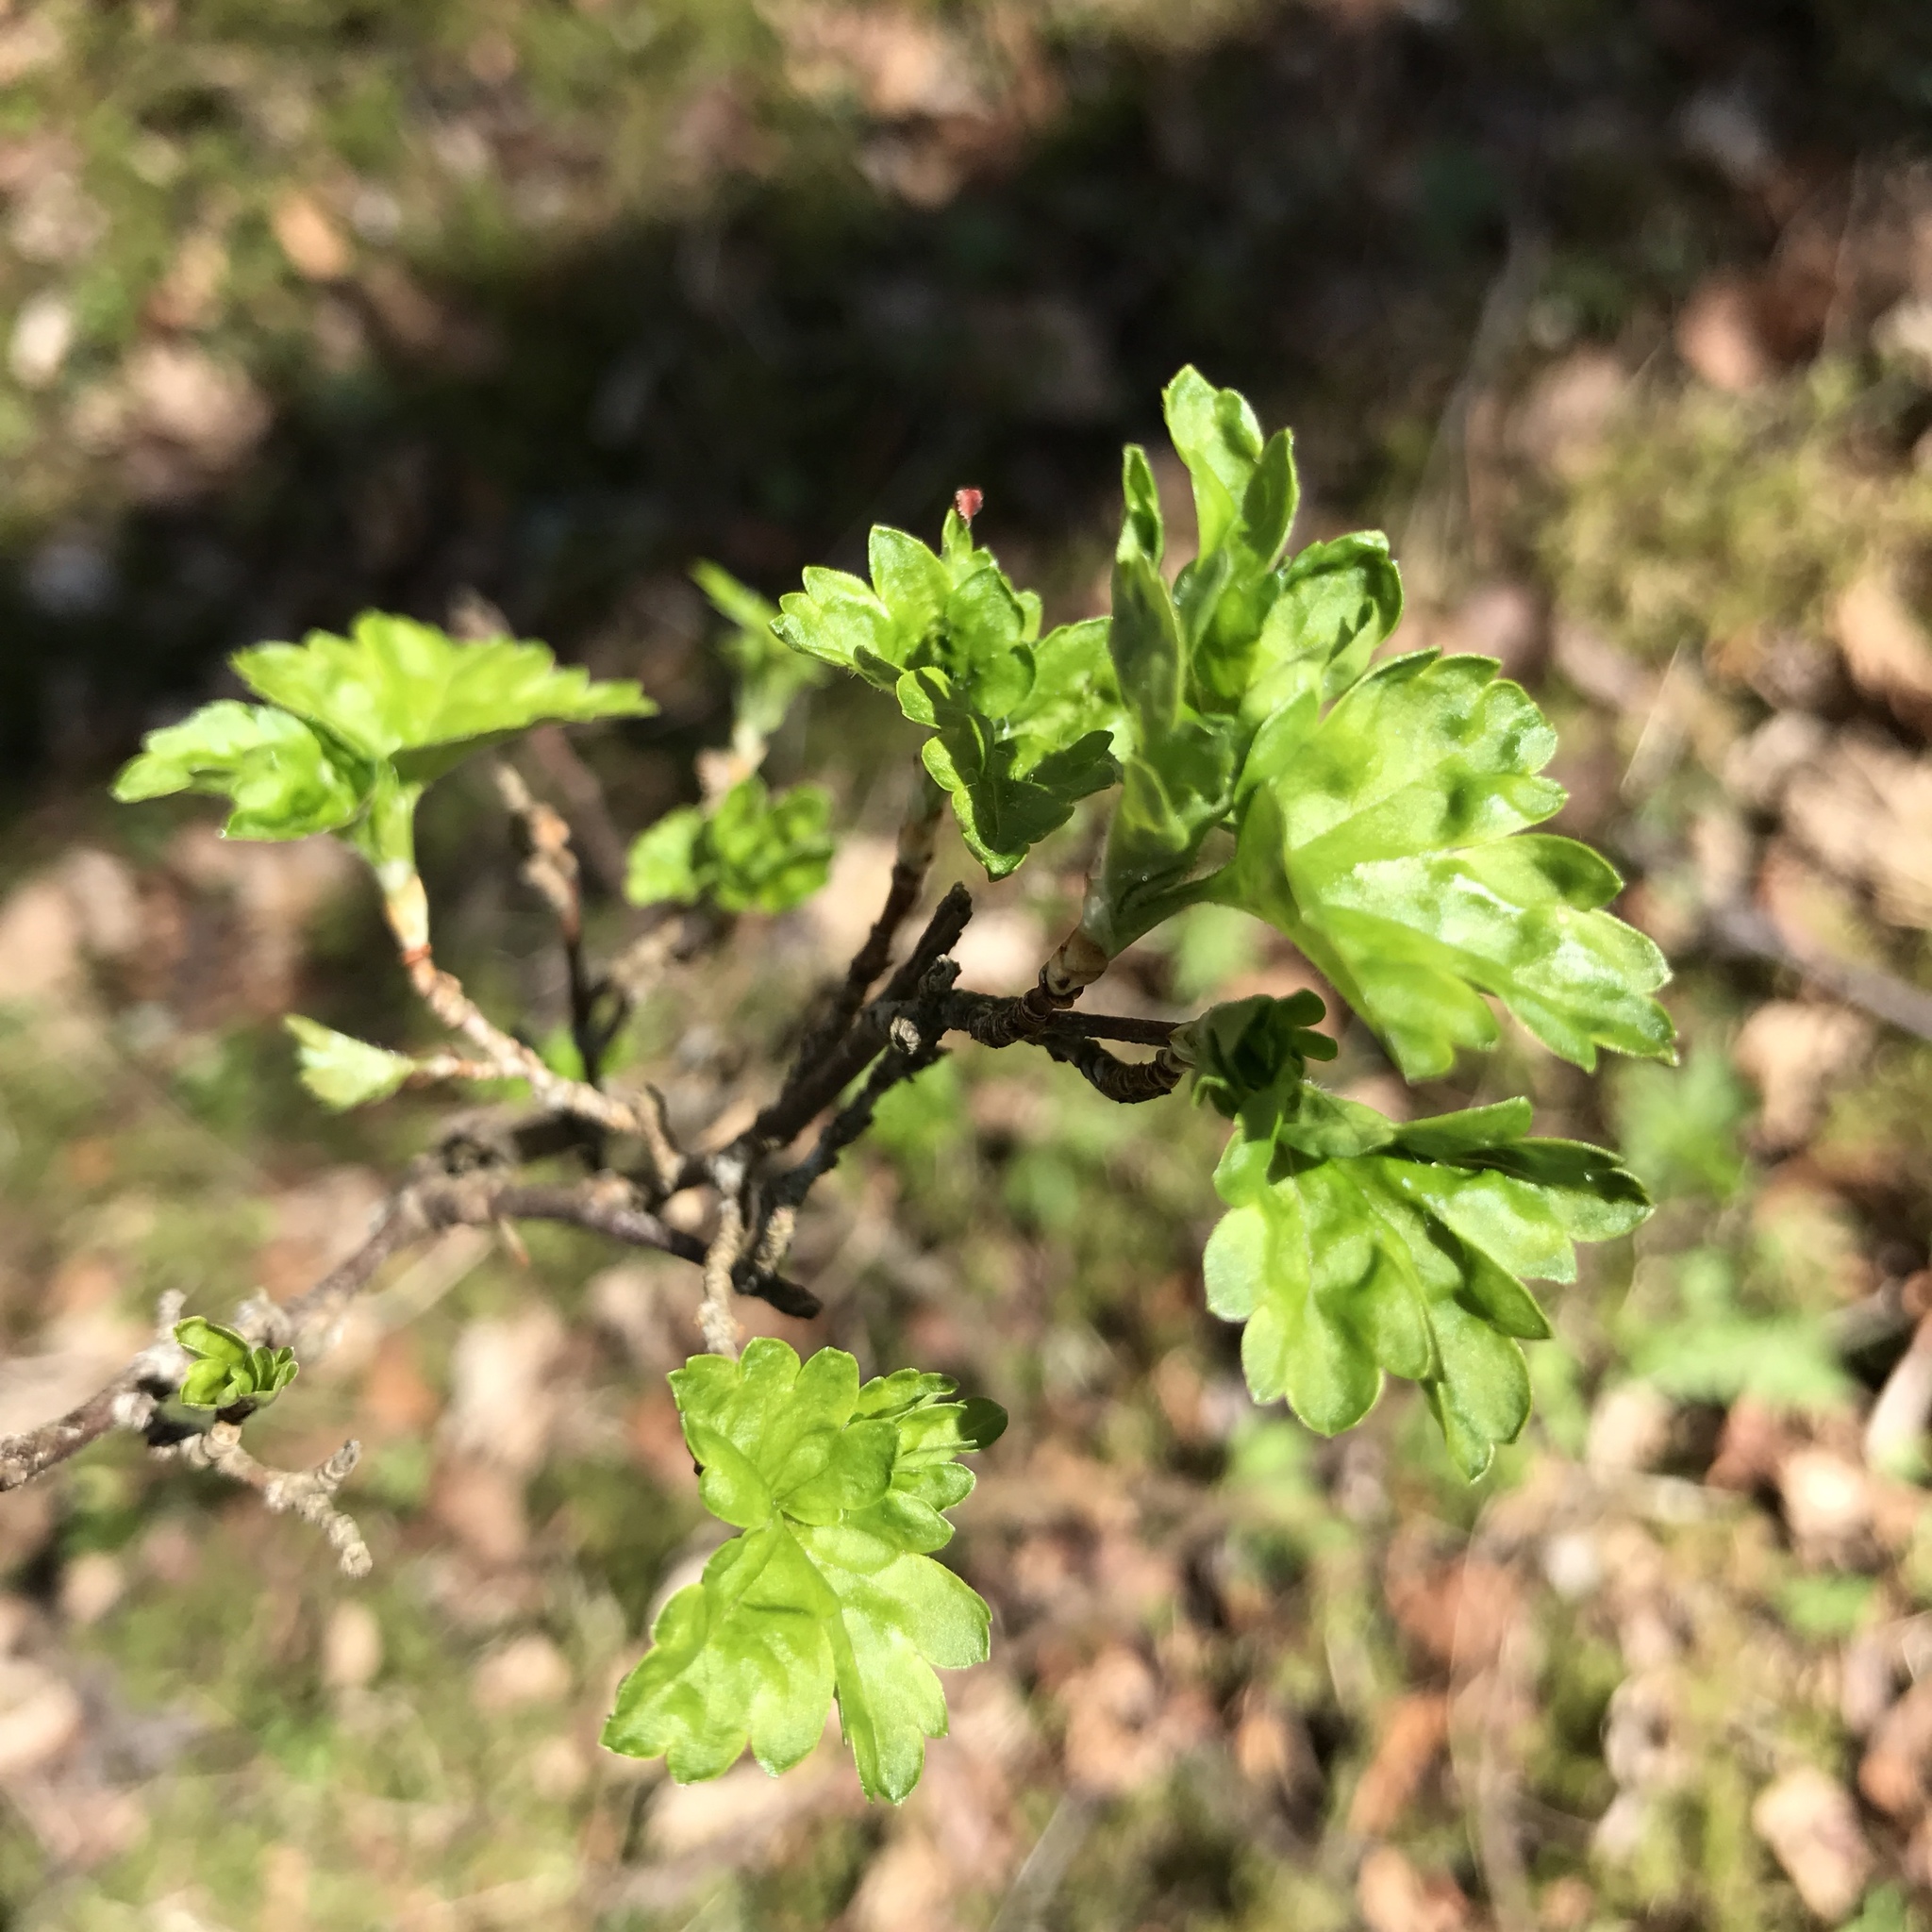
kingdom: Plantae
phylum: Tracheophyta
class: Magnoliopsida
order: Saxifragales
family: Grossulariaceae
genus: Ribes
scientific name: Ribes alpinum
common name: Alpine currant
